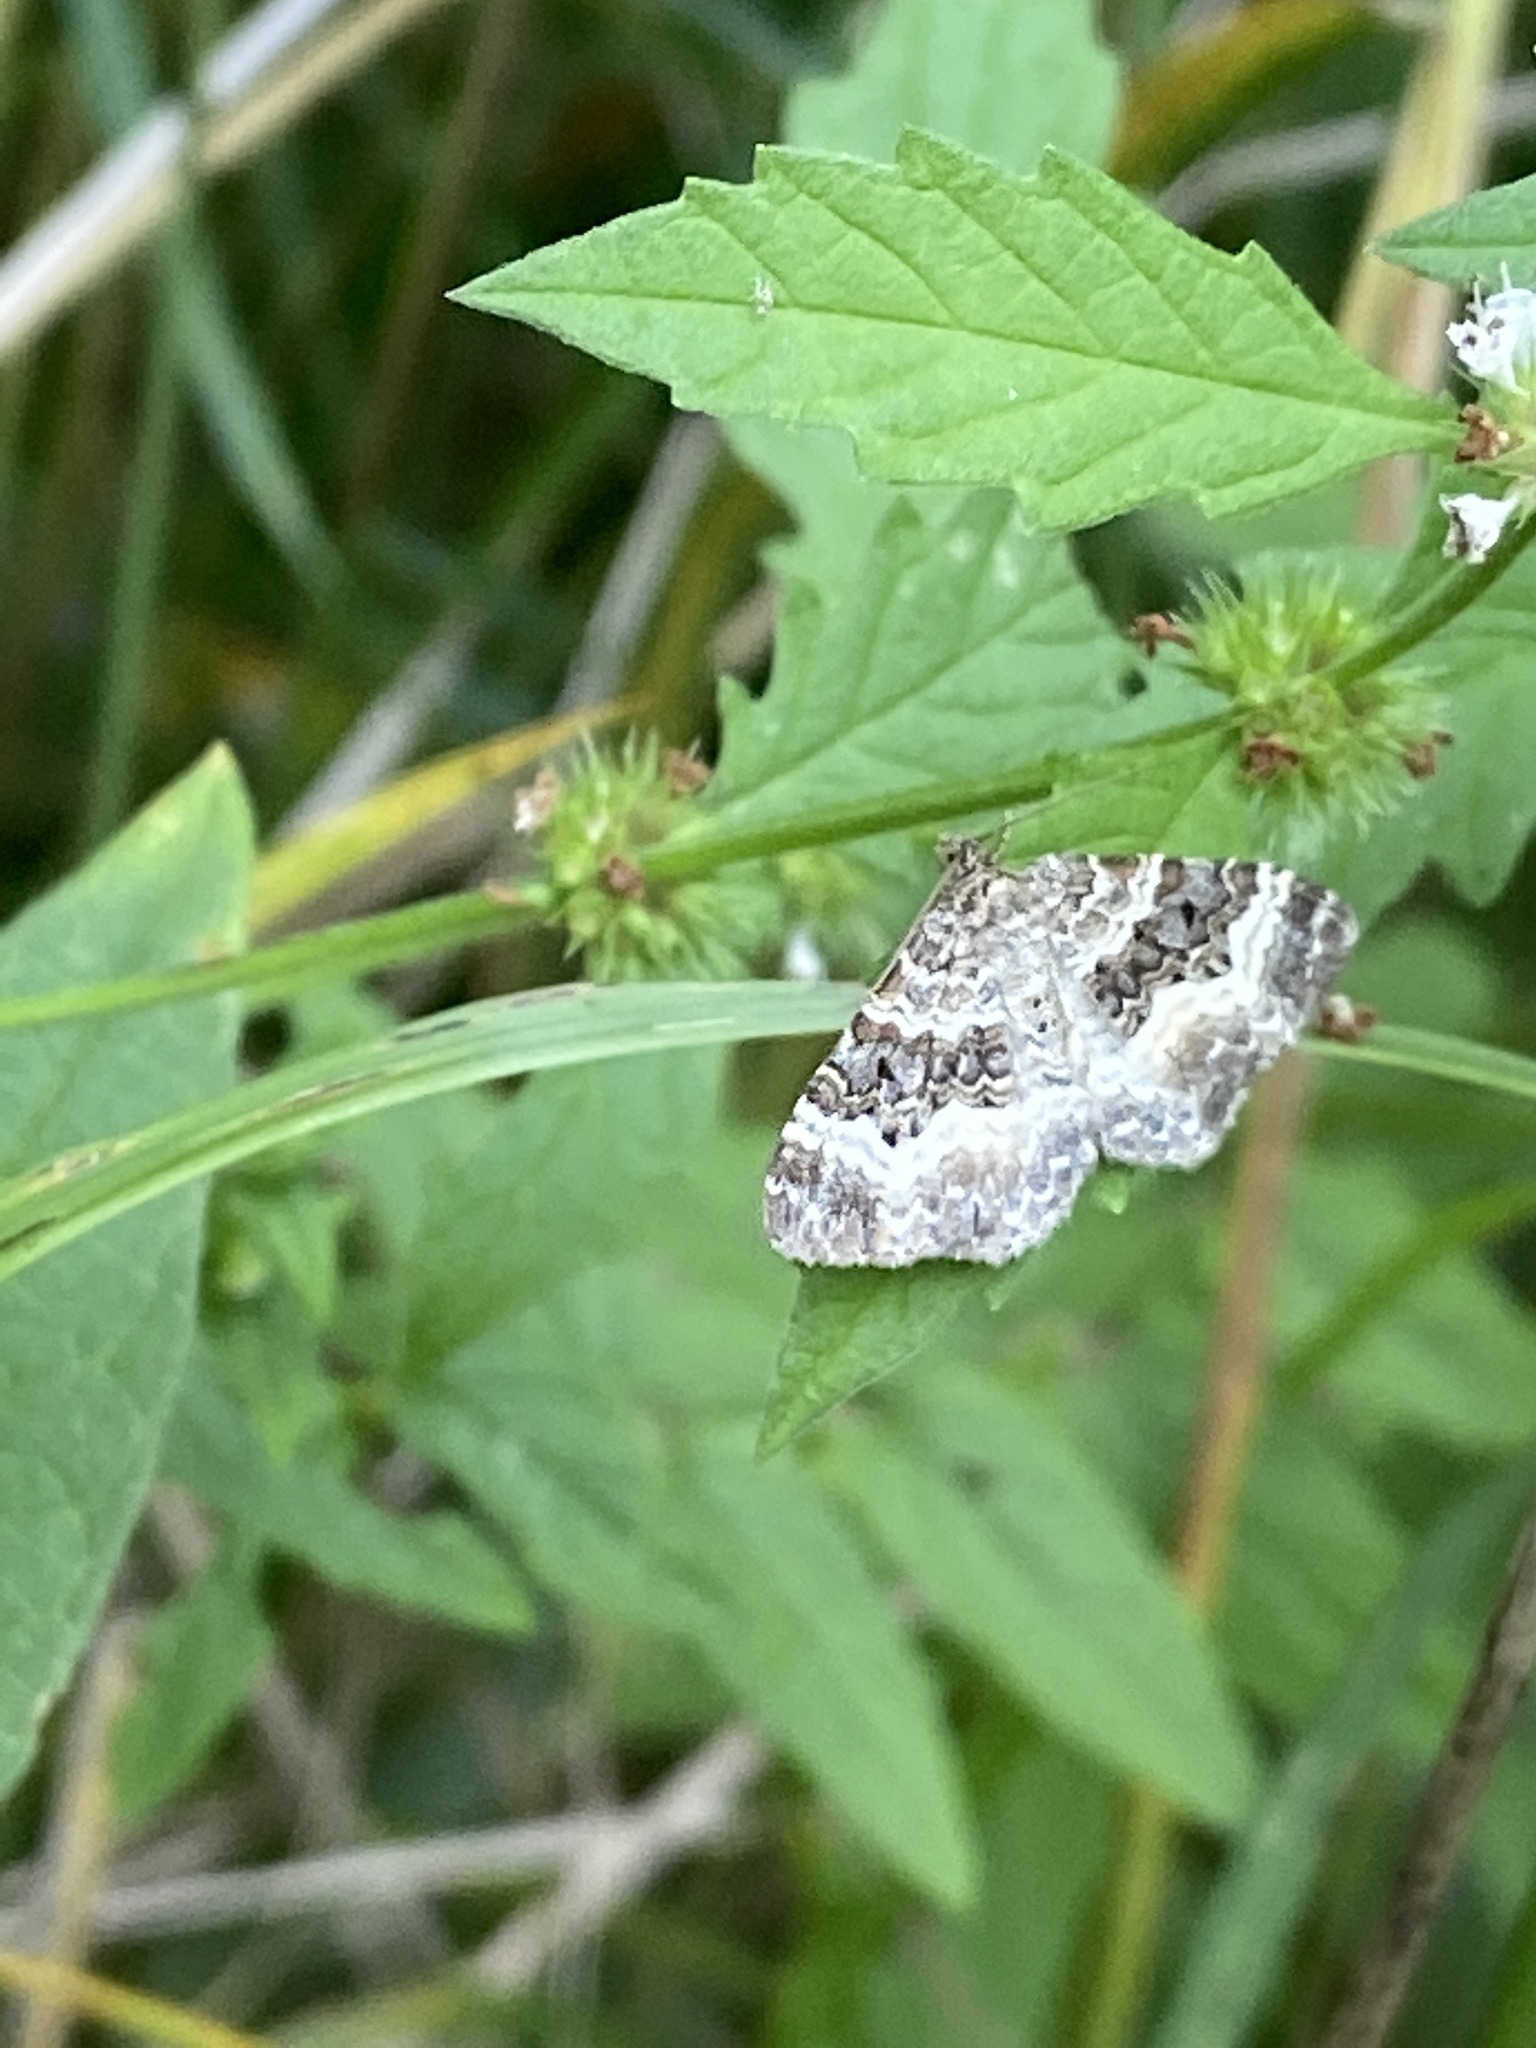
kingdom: Animalia
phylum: Arthropoda
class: Insecta
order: Lepidoptera
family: Geometridae
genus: Epirrhoe
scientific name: Epirrhoe alternata
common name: Common carpet
